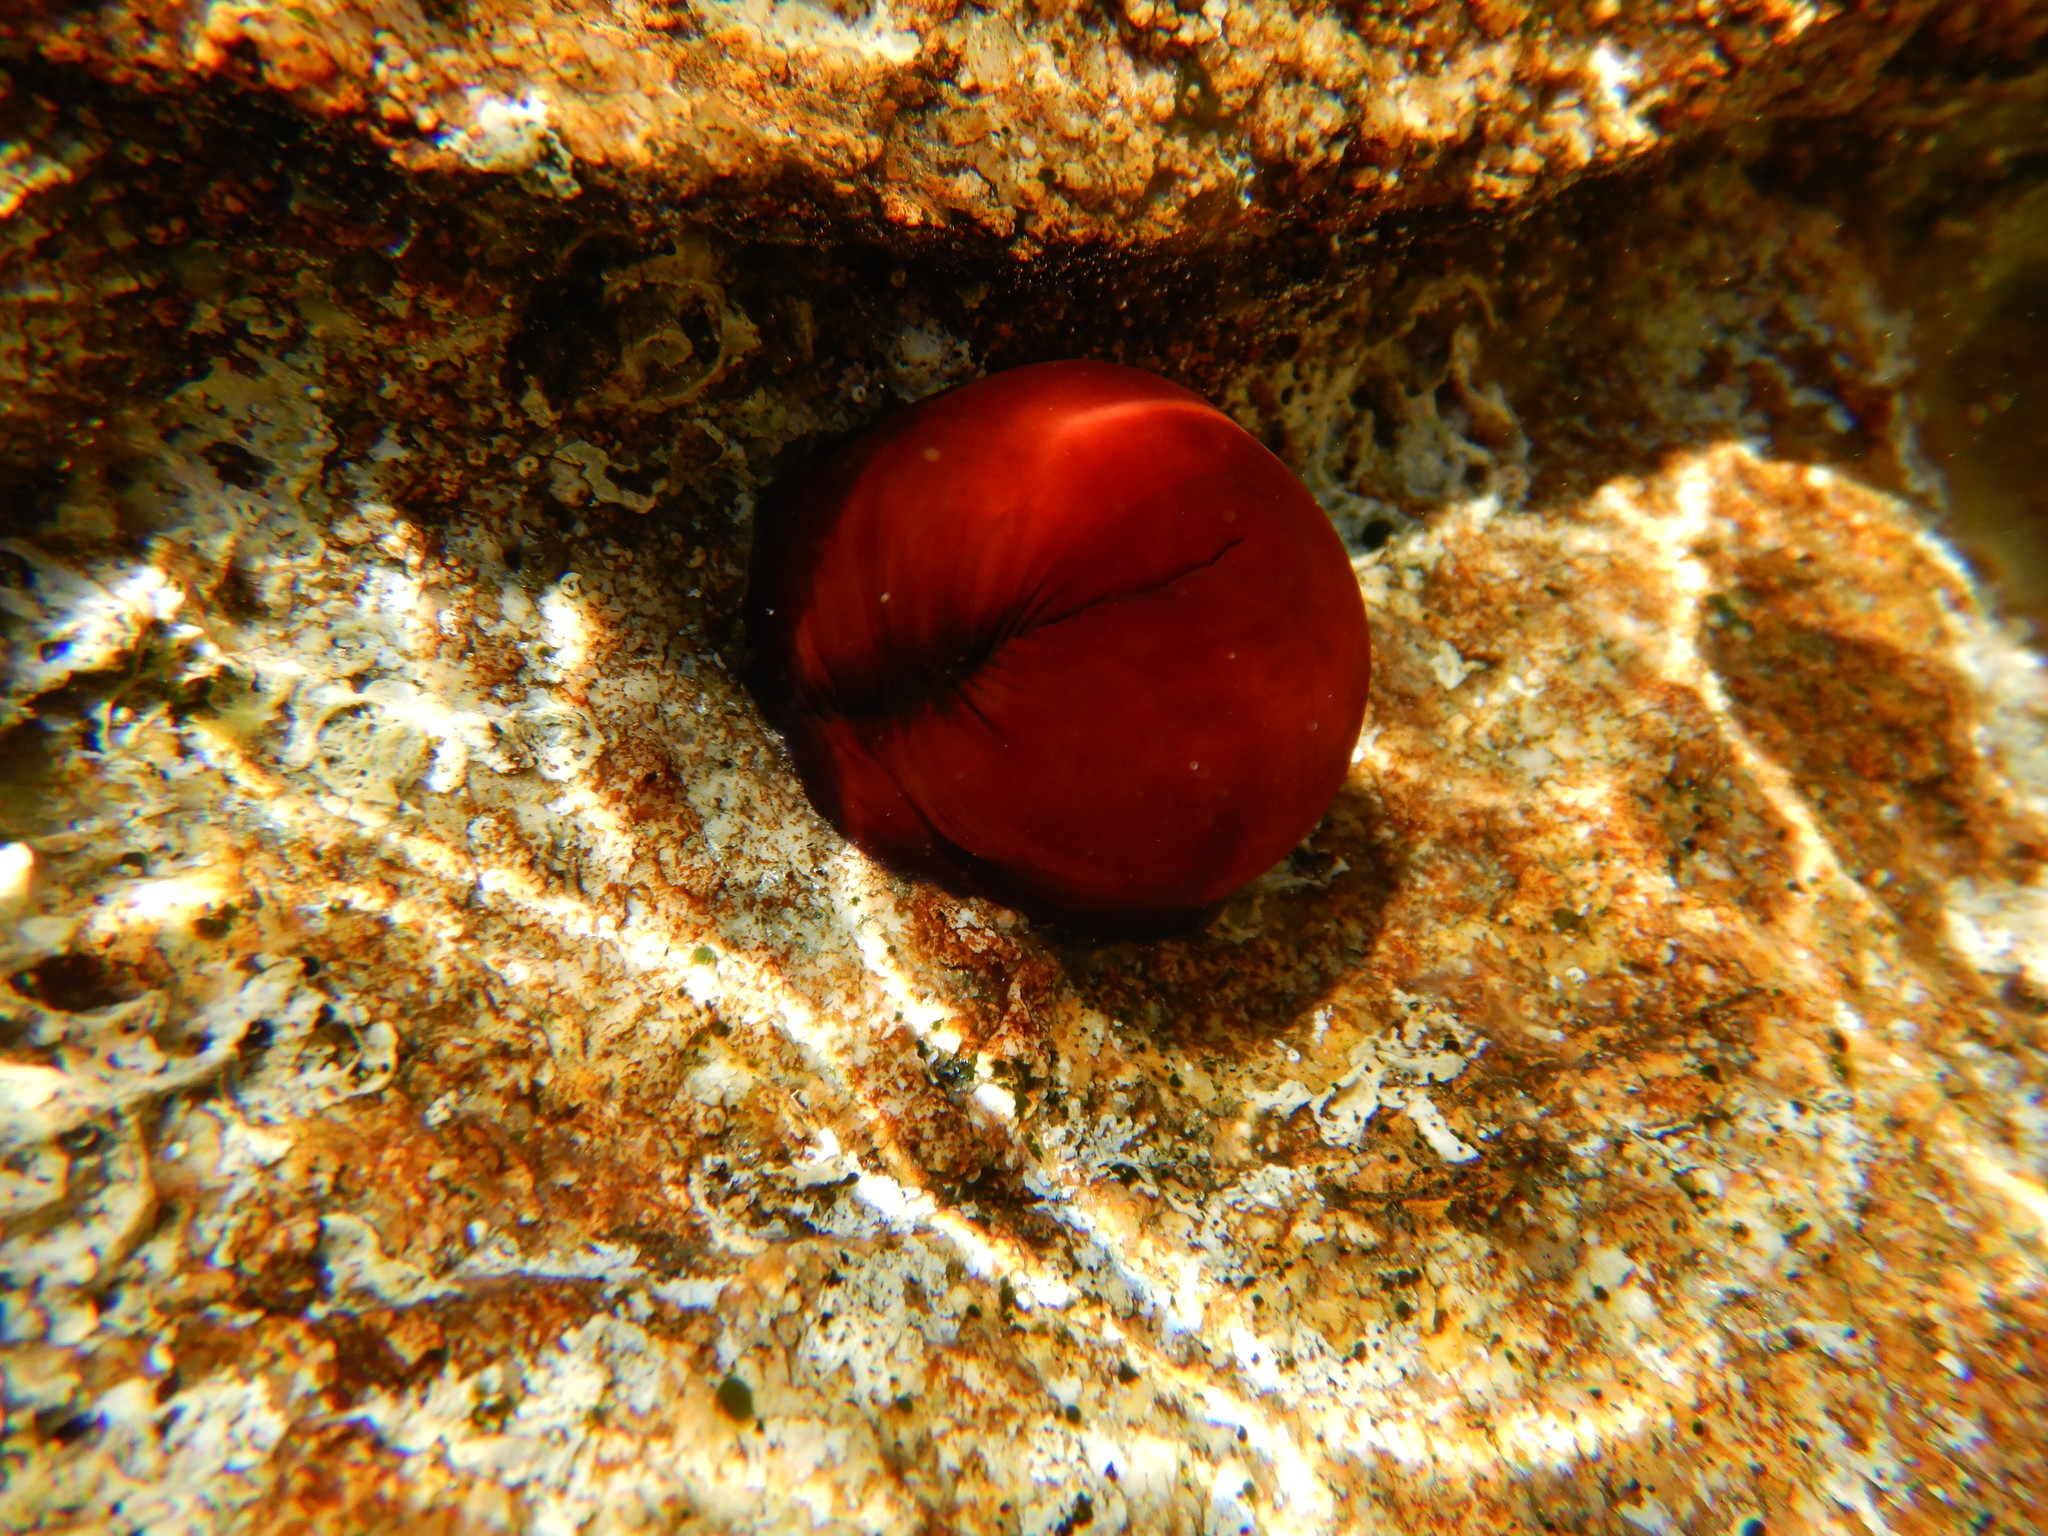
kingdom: Animalia
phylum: Cnidaria
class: Anthozoa
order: Actiniaria
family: Actiniidae
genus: Actinia
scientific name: Actinia mediterranea
